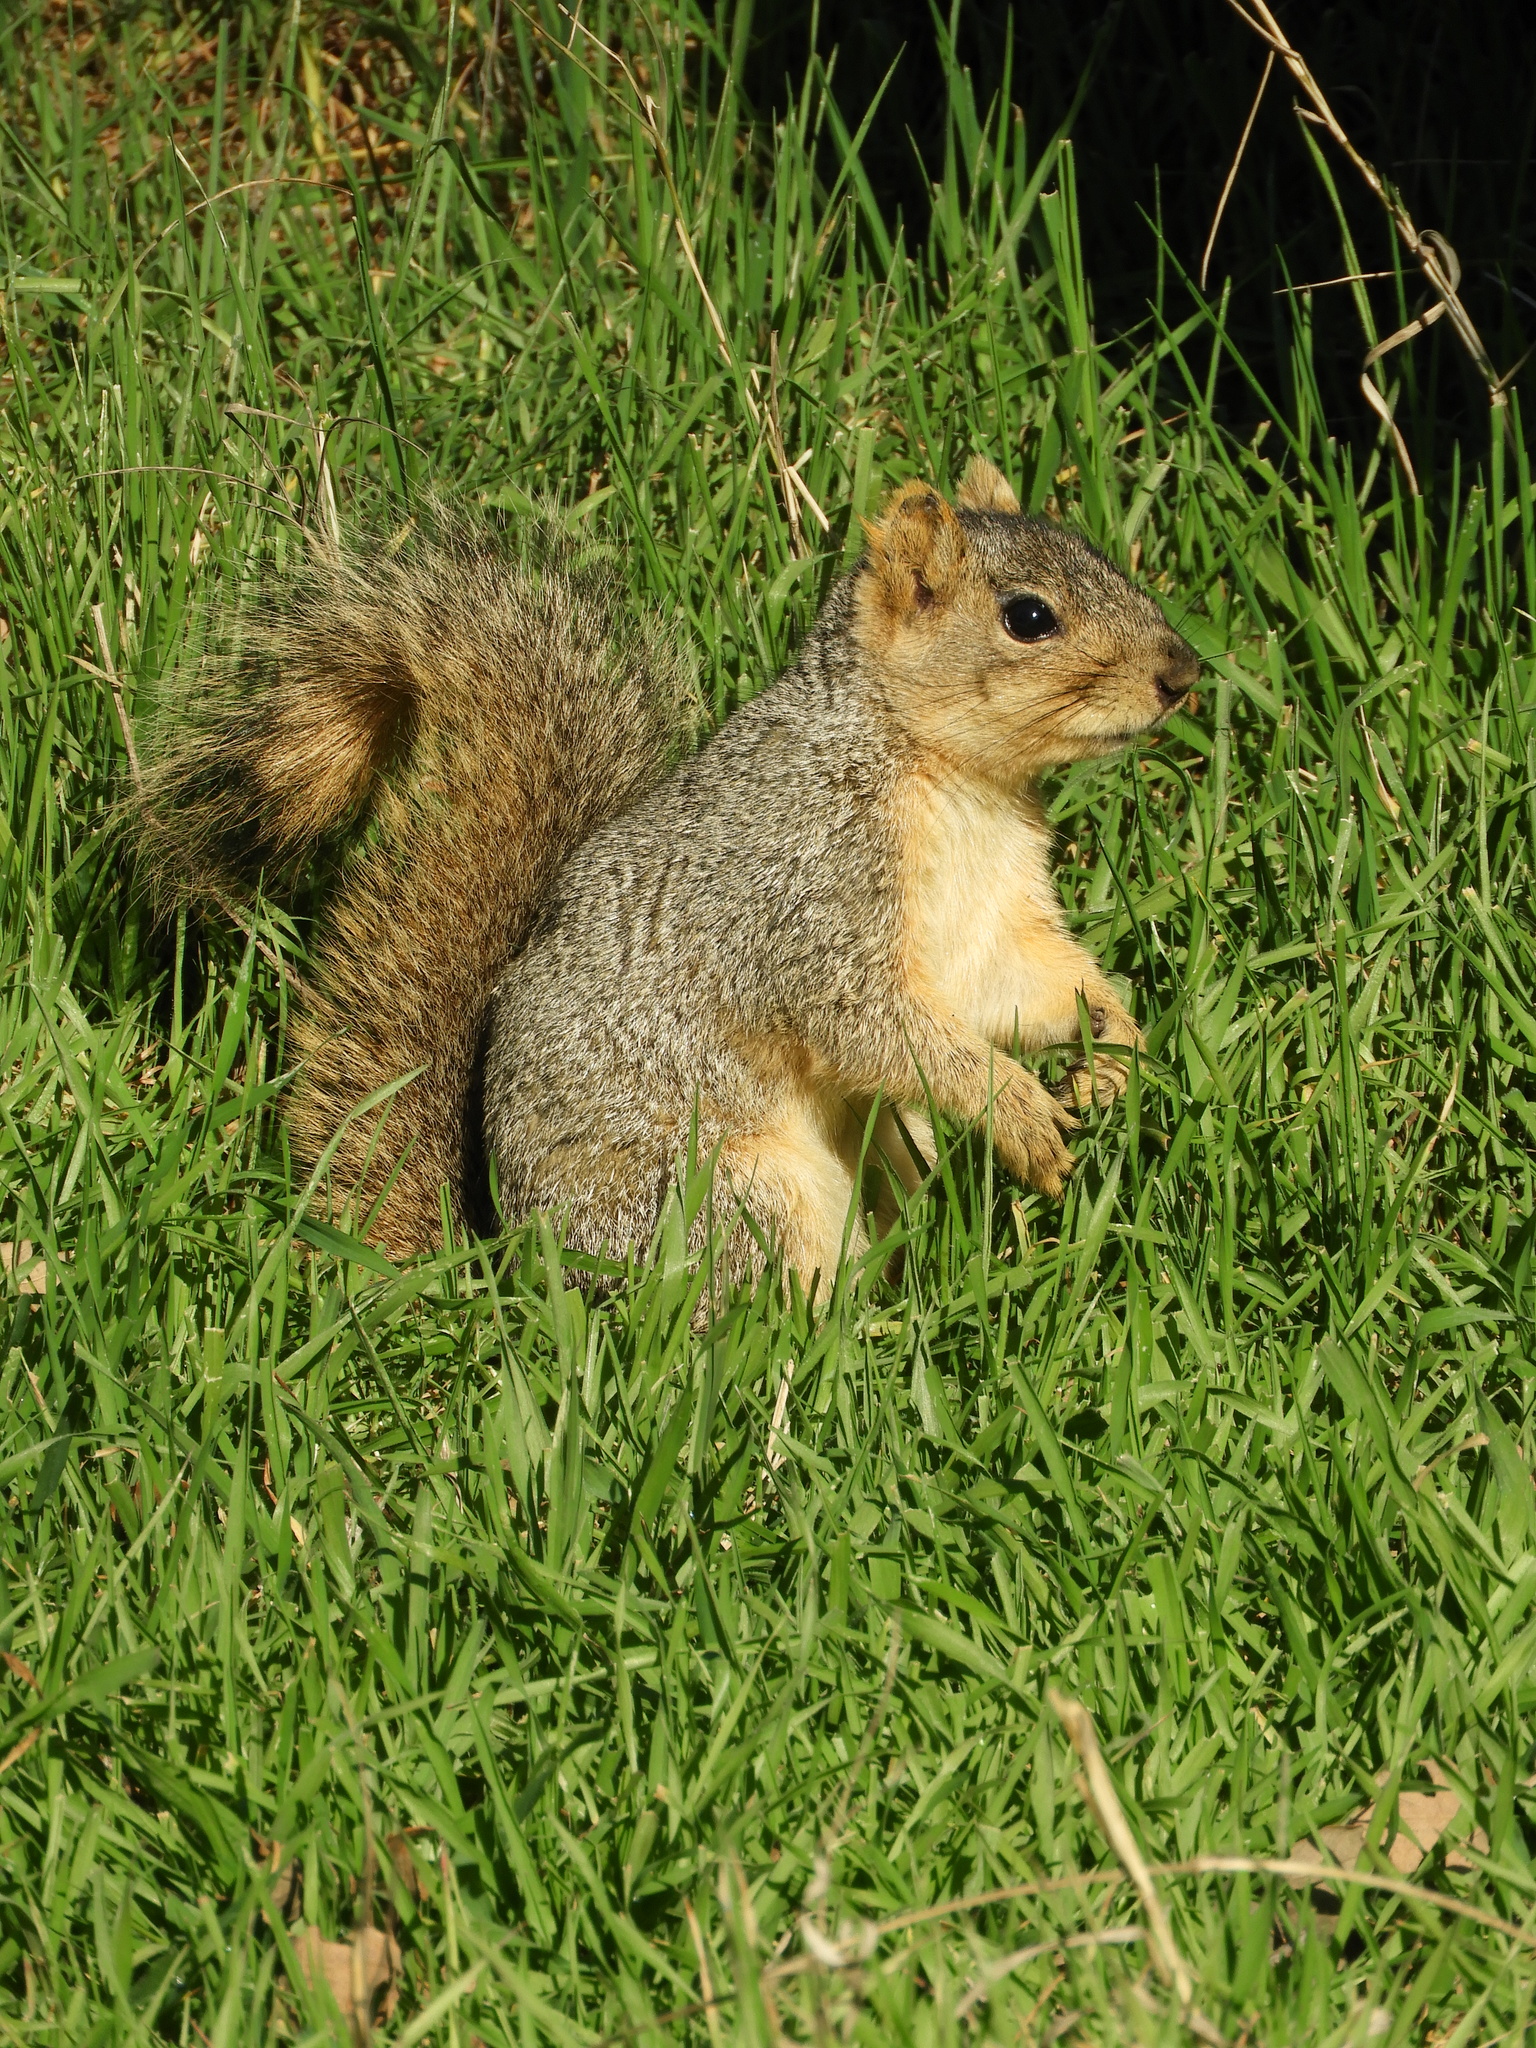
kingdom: Animalia
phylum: Chordata
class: Mammalia
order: Rodentia
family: Sciuridae
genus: Sciurus
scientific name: Sciurus niger
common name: Fox squirrel
